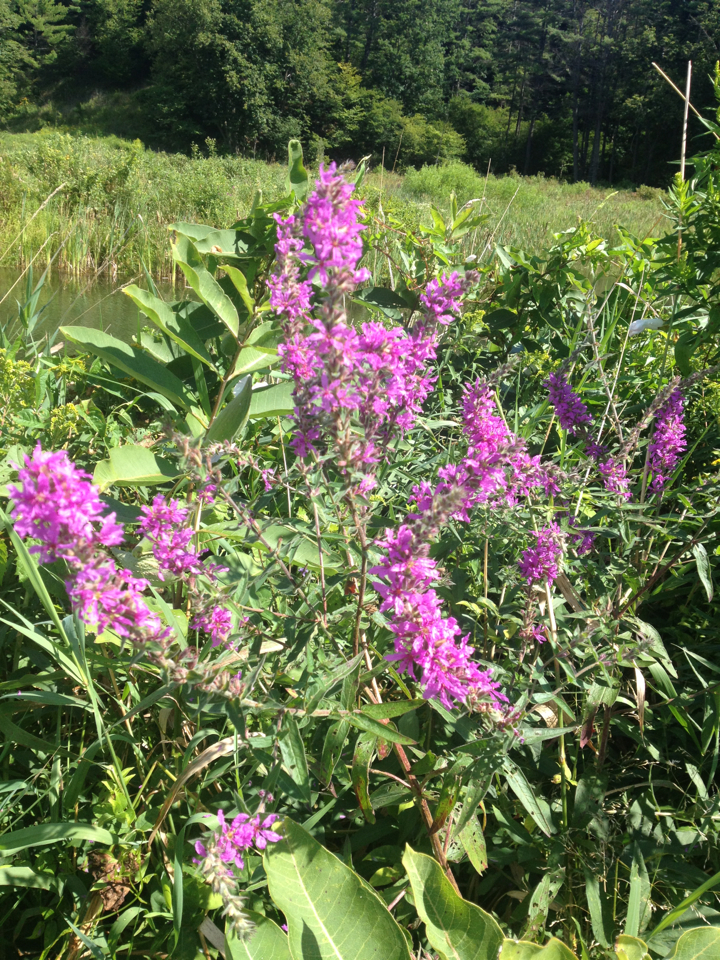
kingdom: Plantae
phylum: Tracheophyta
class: Magnoliopsida
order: Myrtales
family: Lythraceae
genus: Lythrum
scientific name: Lythrum salicaria
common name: Purple loosestrife
